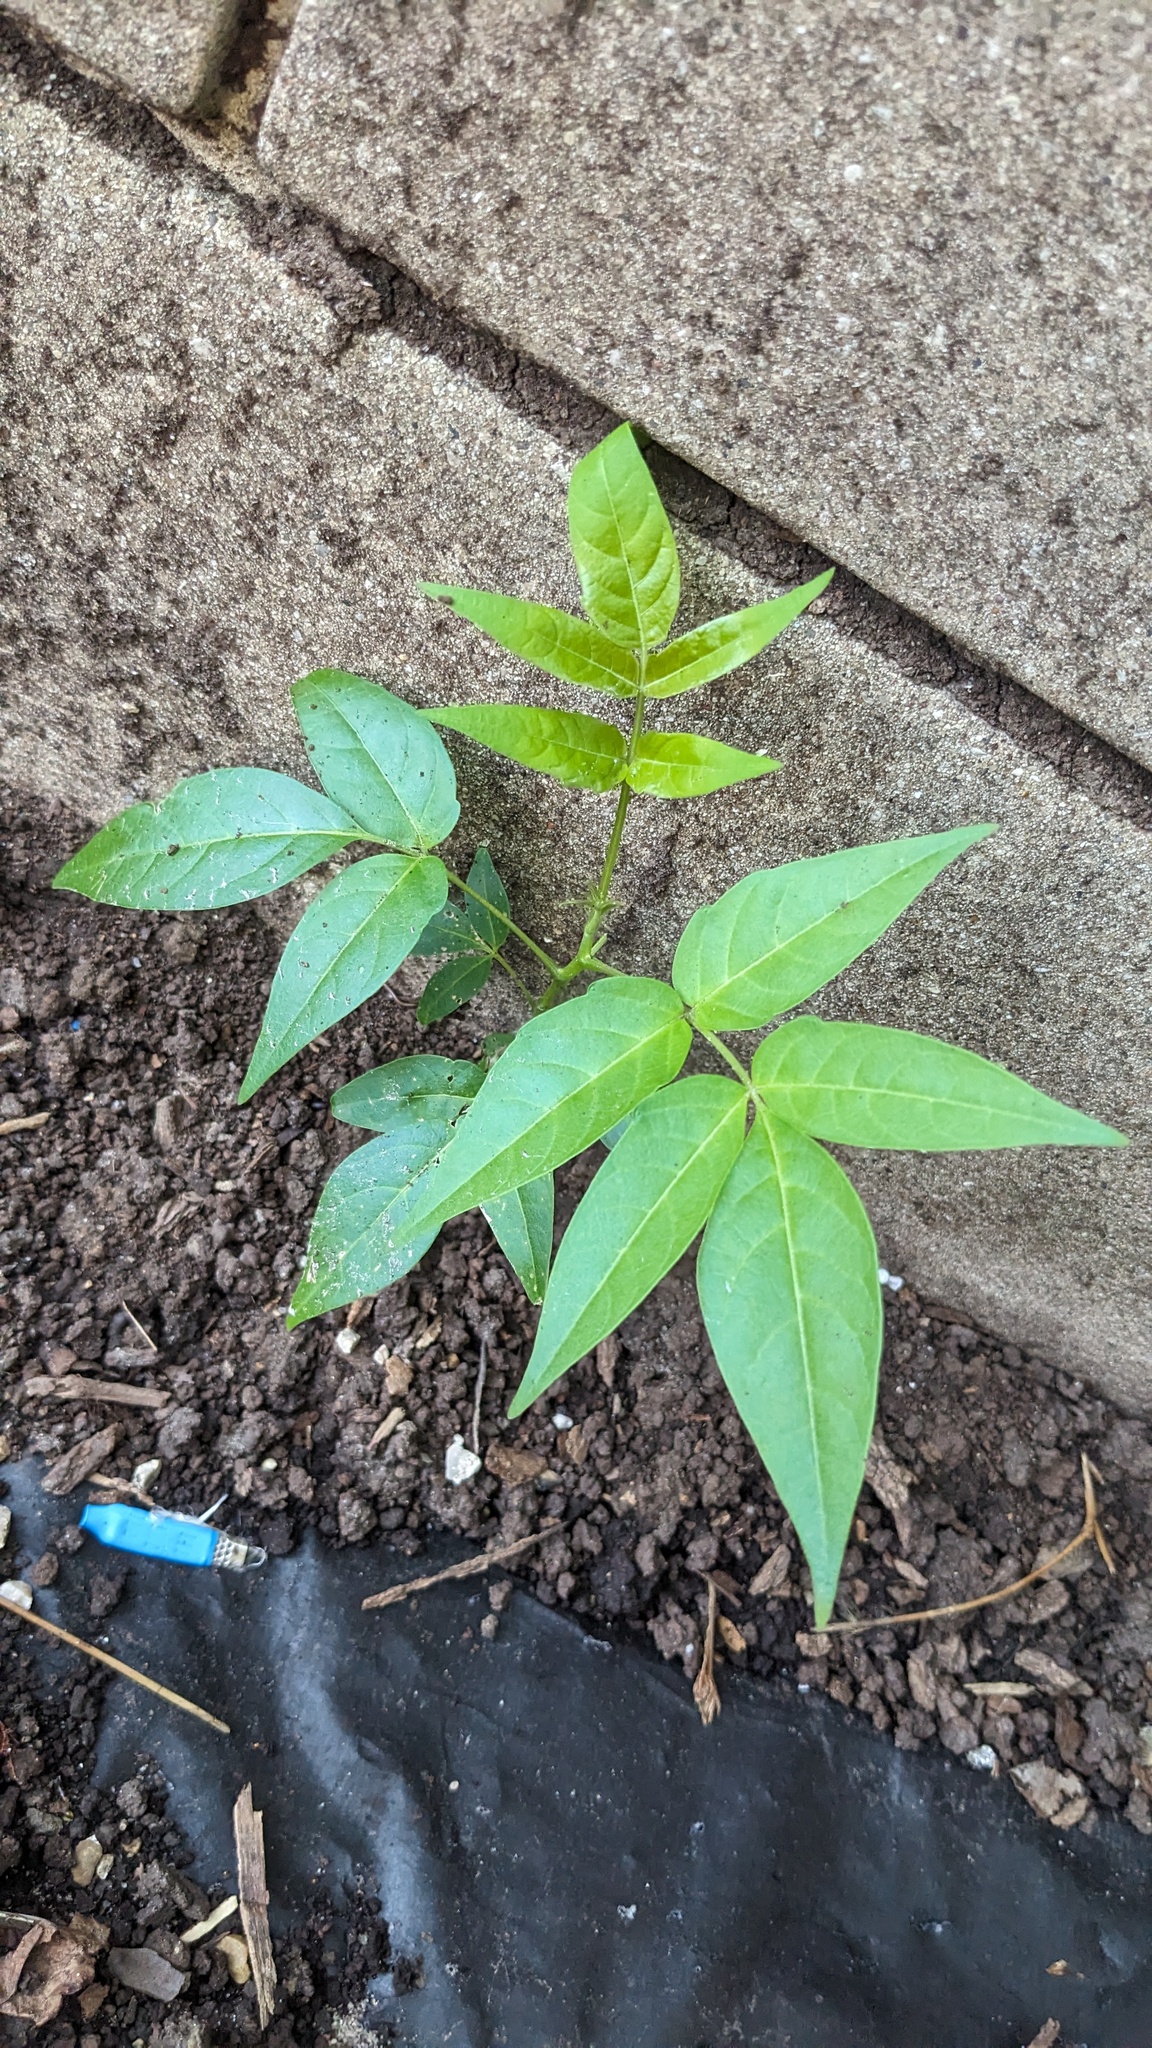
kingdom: Plantae
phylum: Tracheophyta
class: Magnoliopsida
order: Sapindales
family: Simaroubaceae
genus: Ailanthus
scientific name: Ailanthus altissima
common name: Tree-of-heaven
